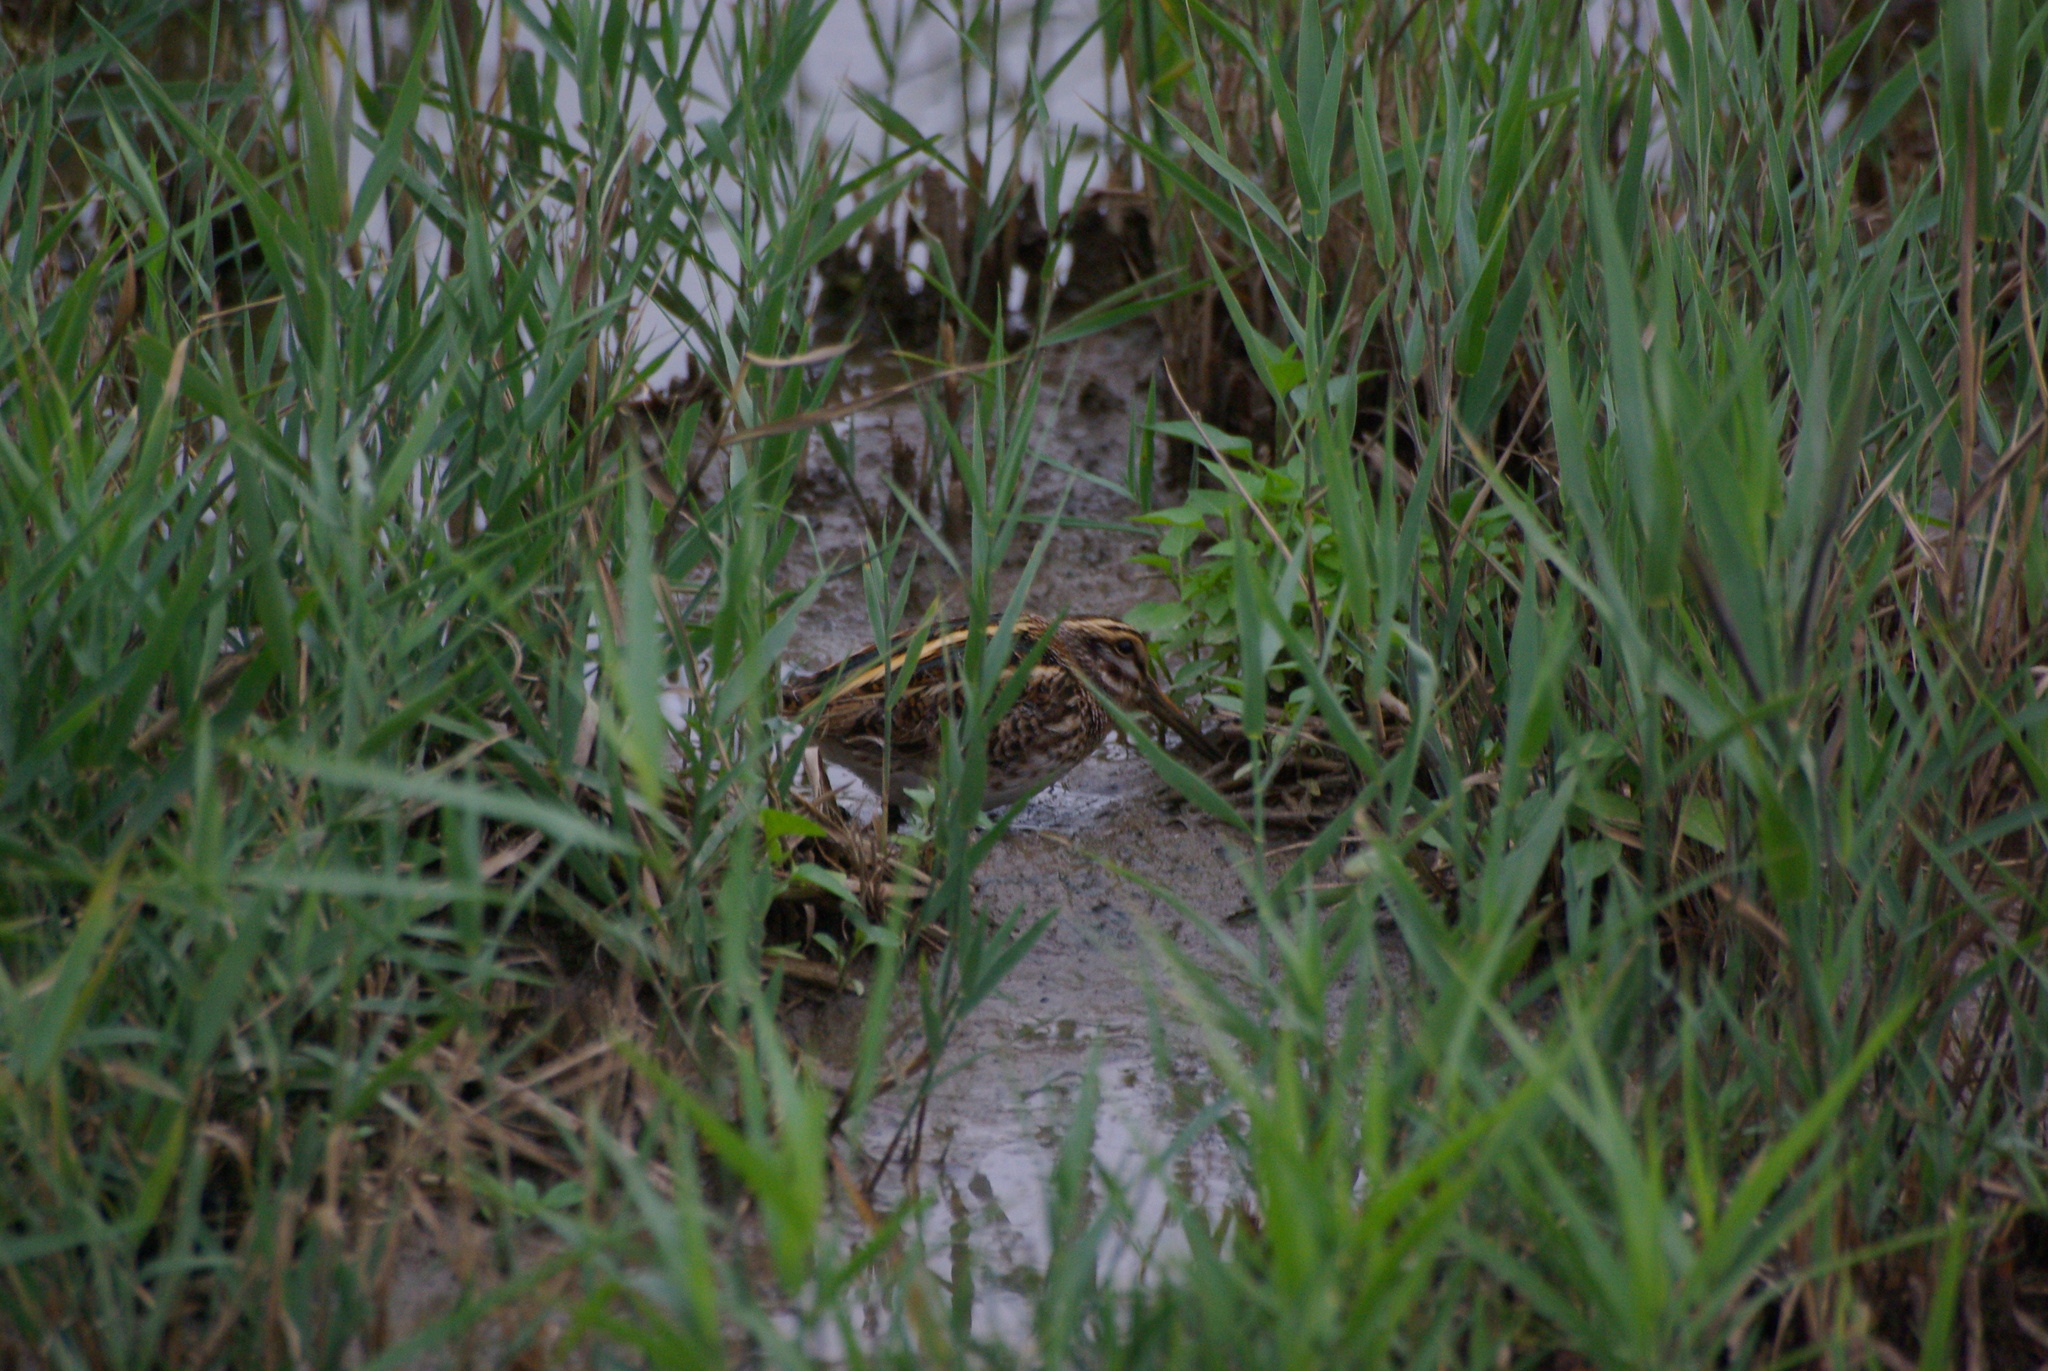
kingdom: Animalia
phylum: Chordata
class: Aves
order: Charadriiformes
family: Scolopacidae
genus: Lymnocryptes
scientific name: Lymnocryptes minimus
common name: Jack snipe
